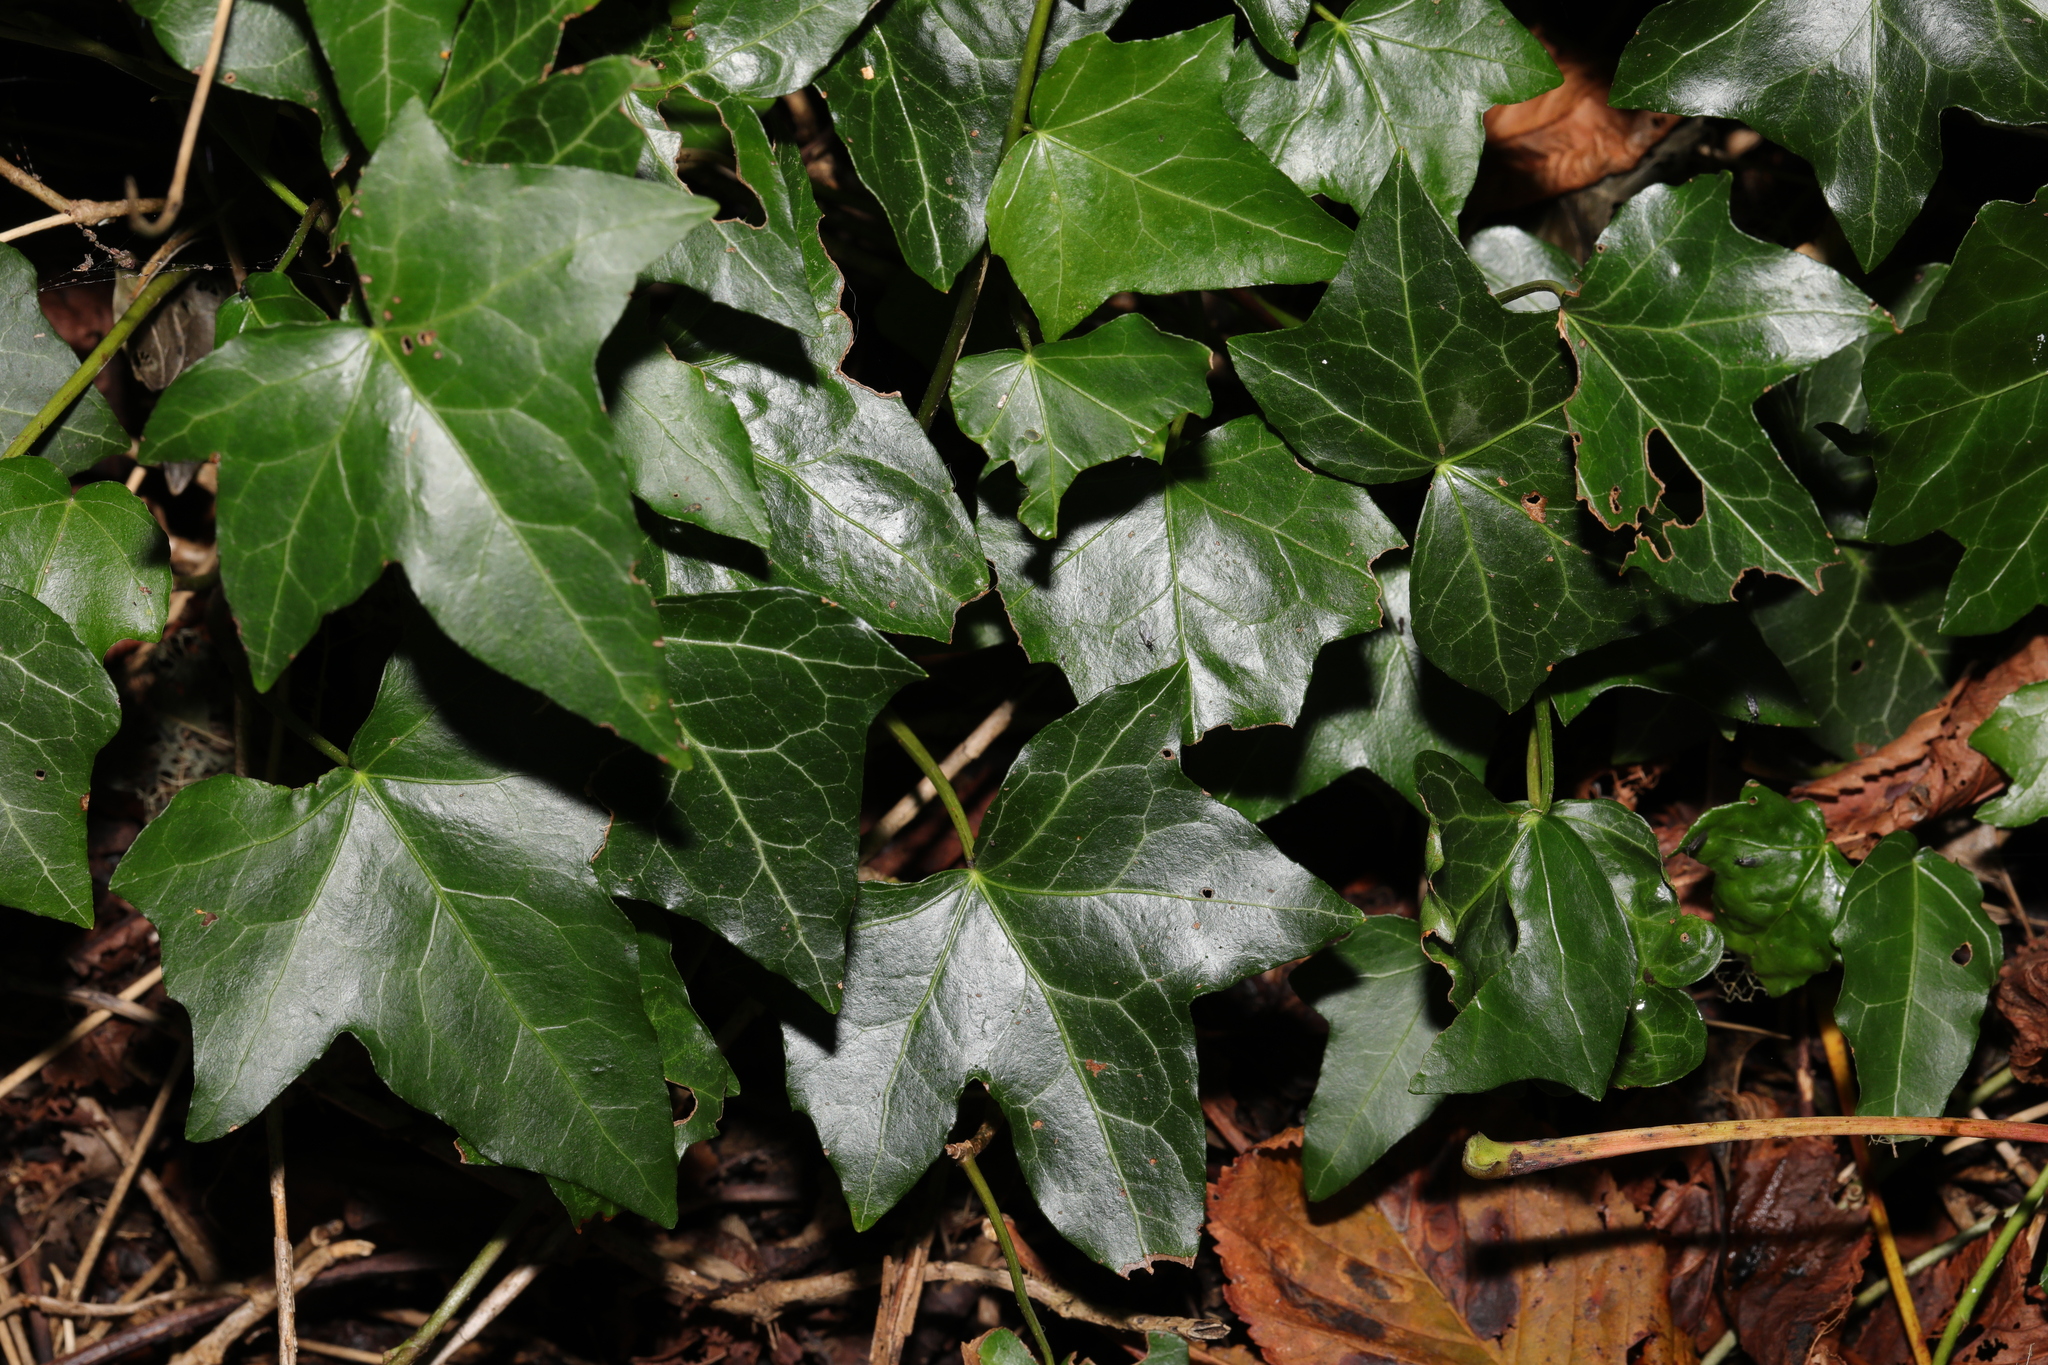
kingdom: Plantae
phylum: Tracheophyta
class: Magnoliopsida
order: Apiales
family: Araliaceae
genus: Hedera
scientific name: Hedera helix
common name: Ivy
